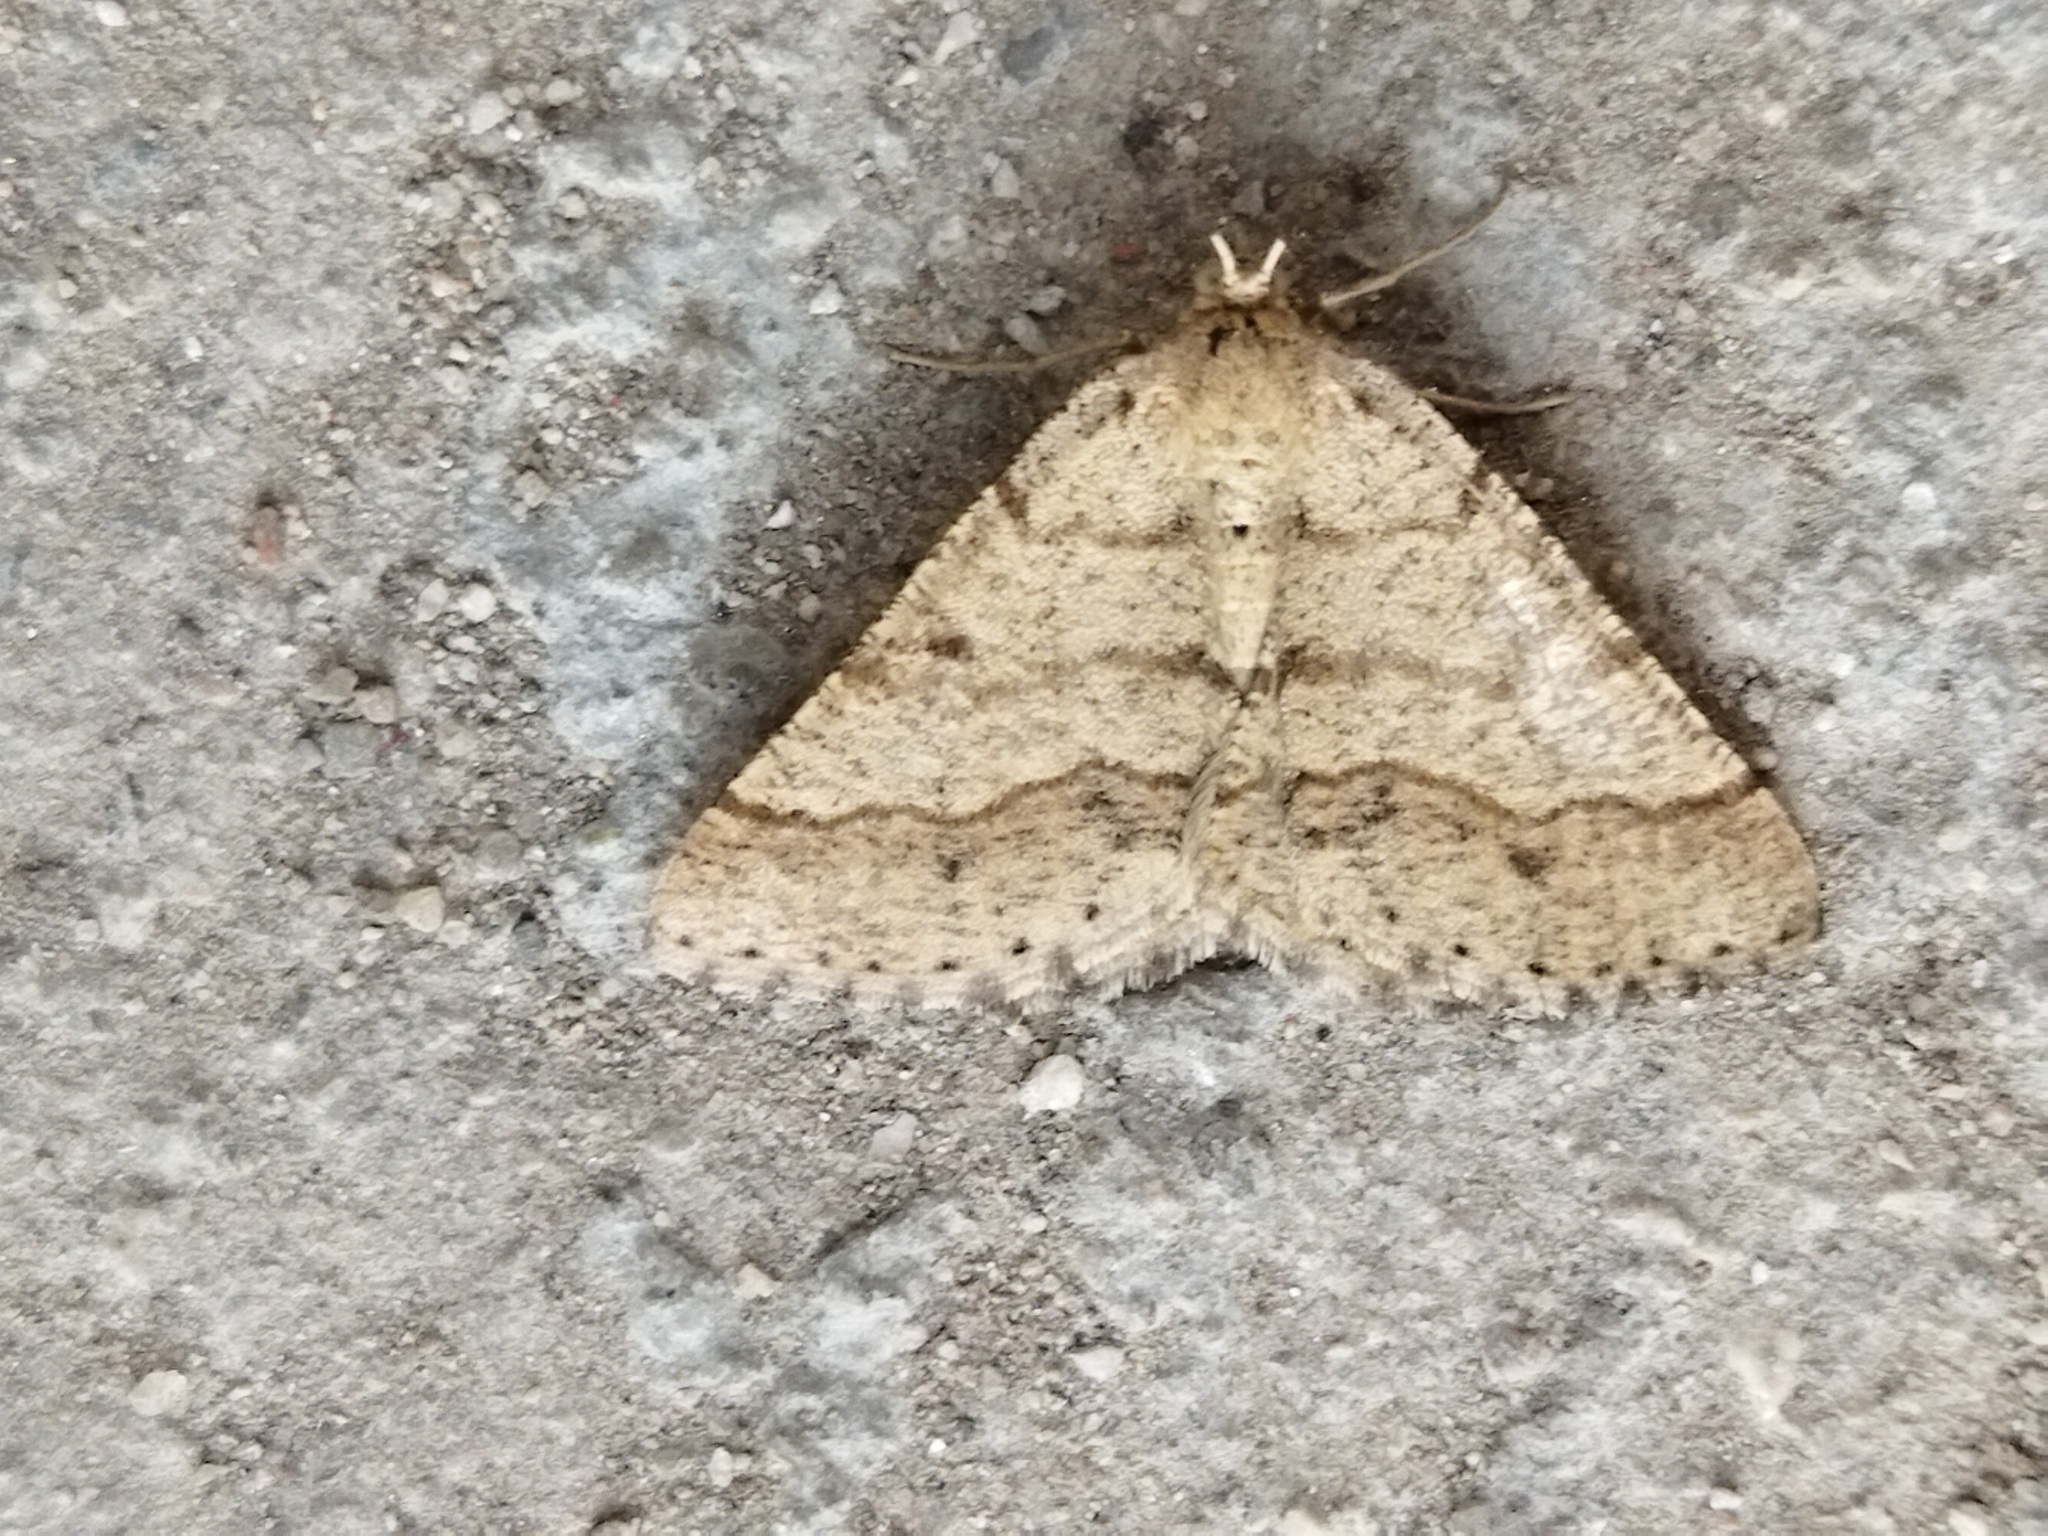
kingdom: Animalia
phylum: Arthropoda
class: Insecta
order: Lepidoptera
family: Geometridae
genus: Tephrina
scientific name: Tephrina murinaria
